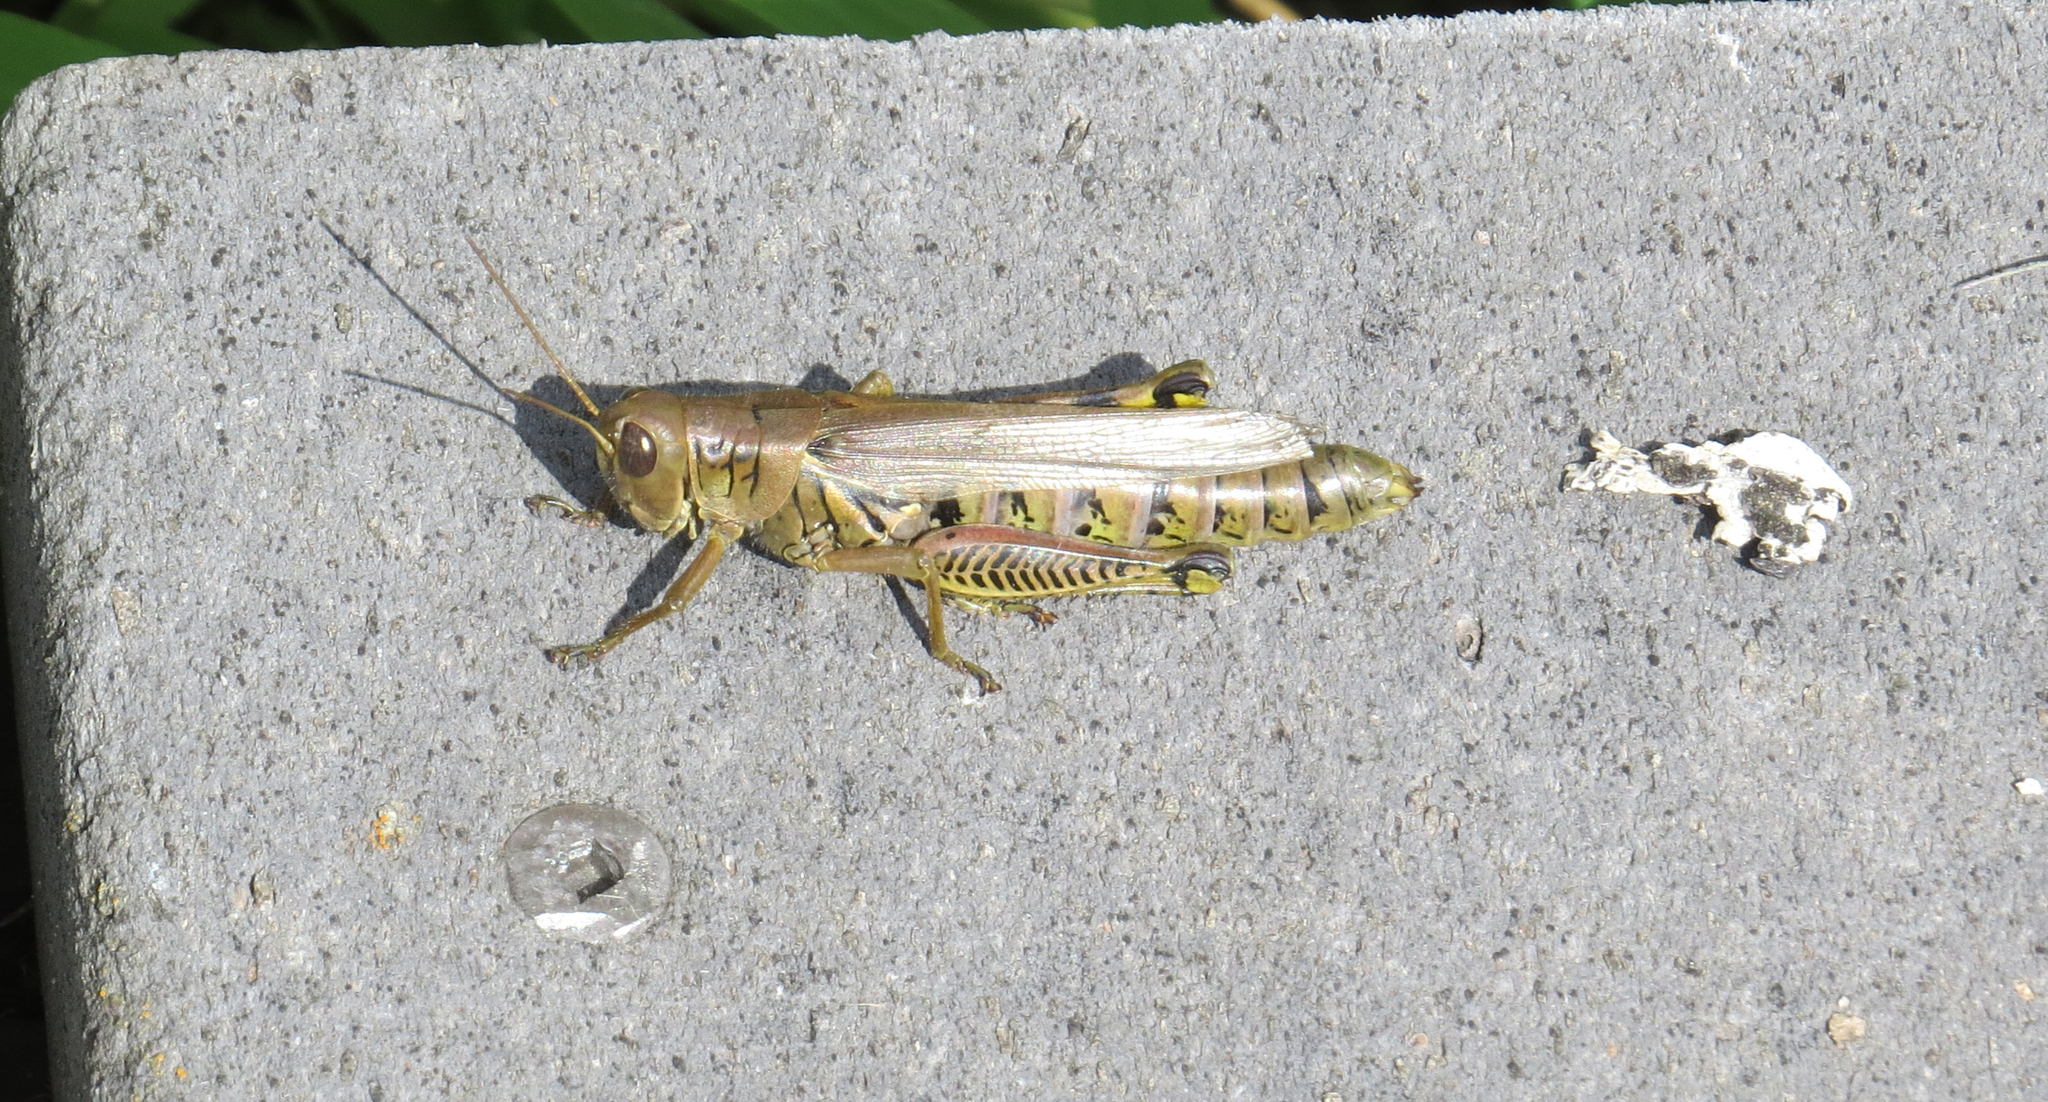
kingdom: Animalia
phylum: Arthropoda
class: Insecta
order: Orthoptera
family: Acrididae
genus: Melanoplus
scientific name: Melanoplus differentialis
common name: Differential grasshopper
